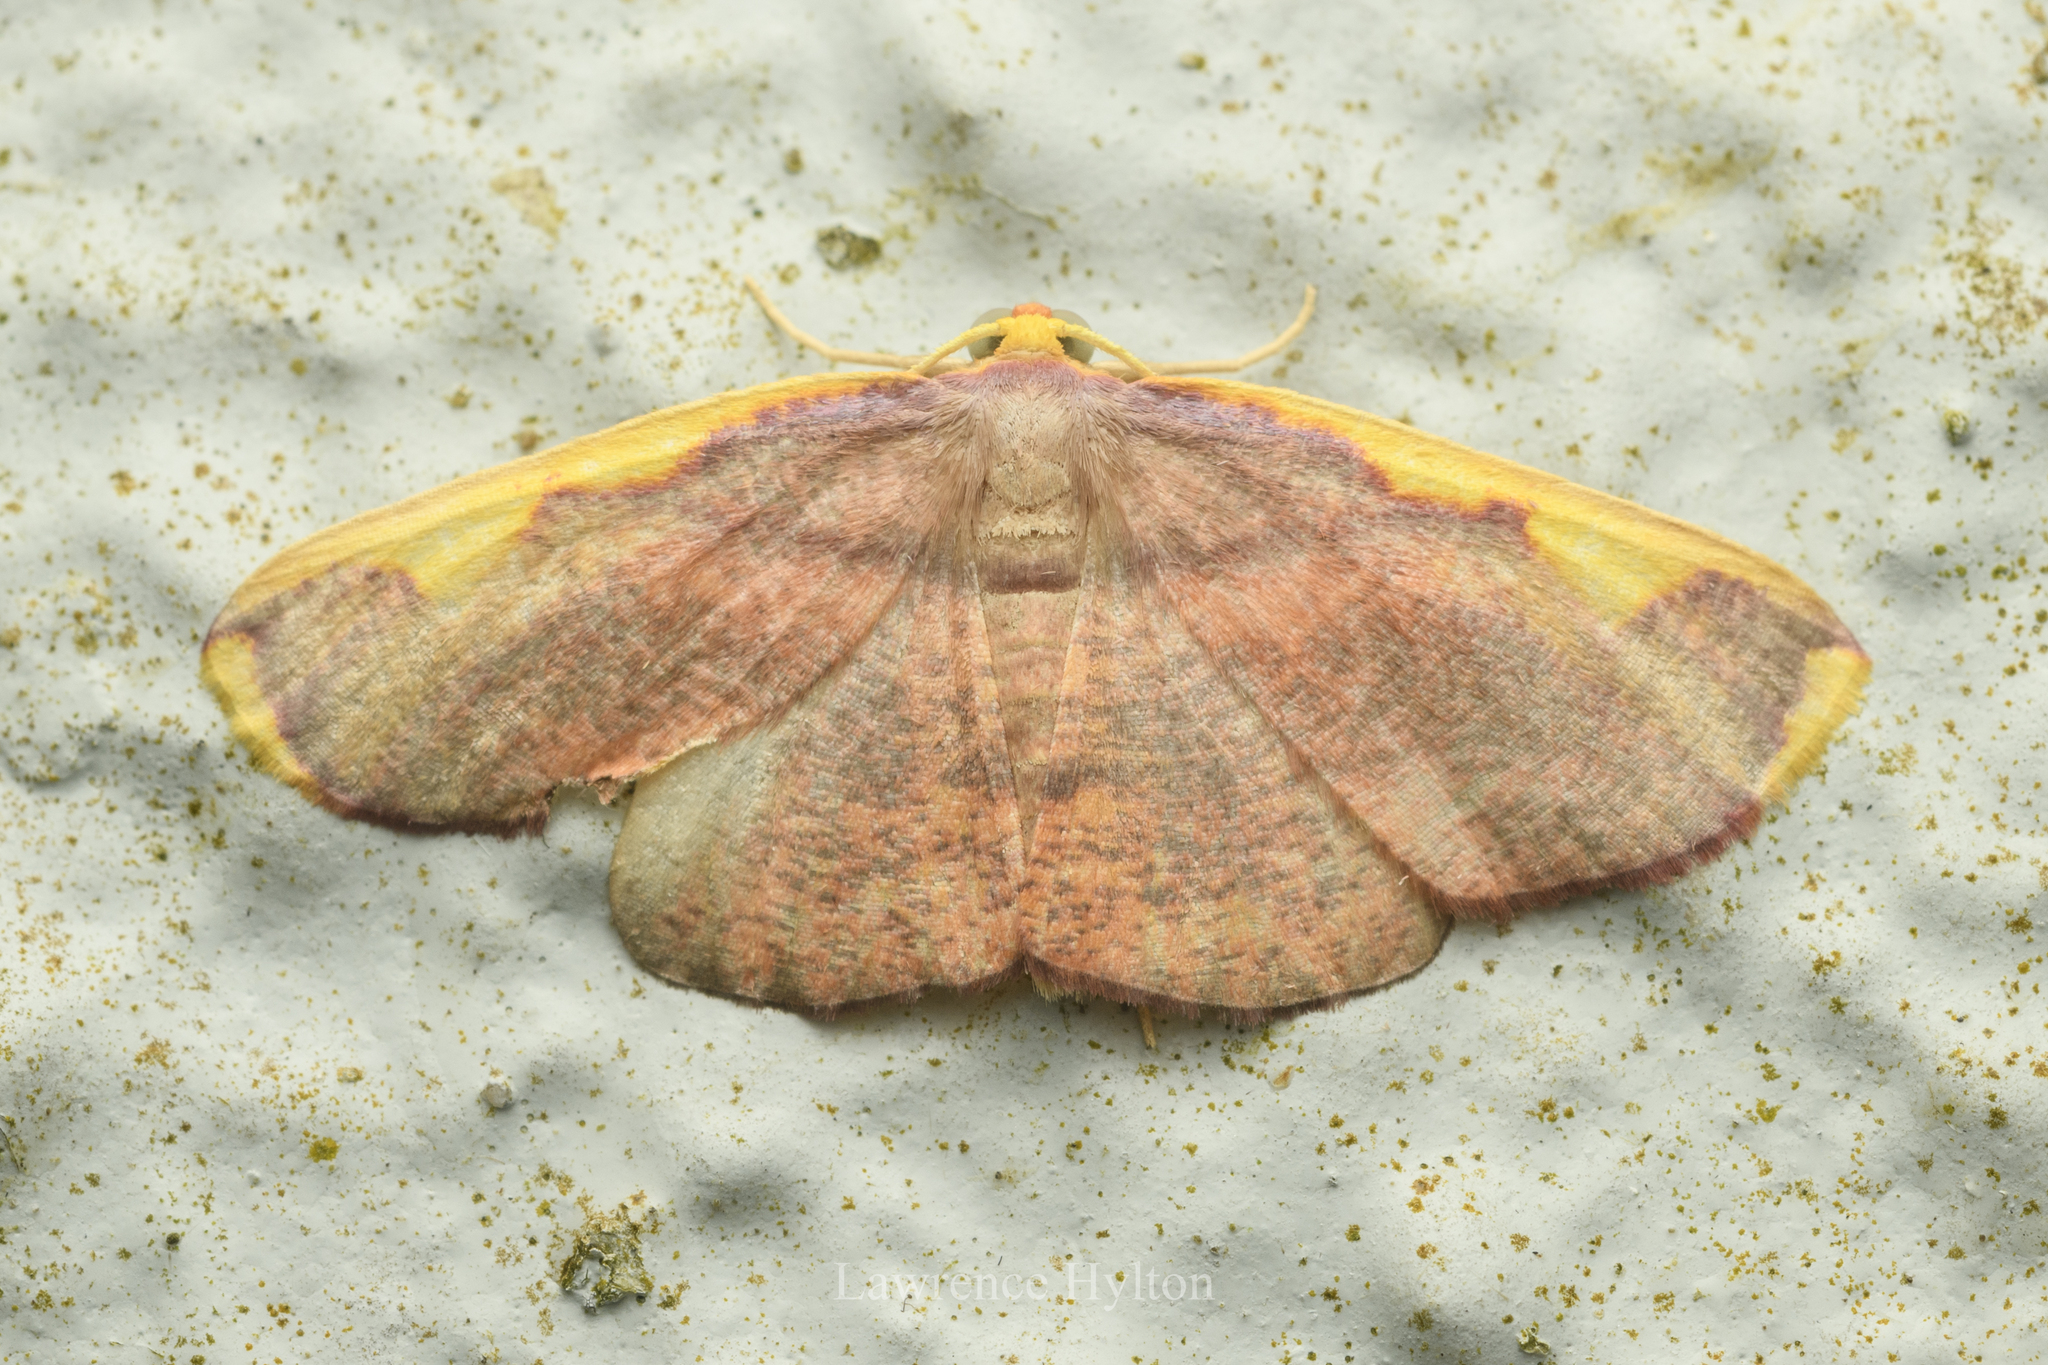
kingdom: Animalia
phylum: Arthropoda
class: Insecta
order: Lepidoptera
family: Geometridae
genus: Nothomiza
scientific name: Nothomiza flavicosta
